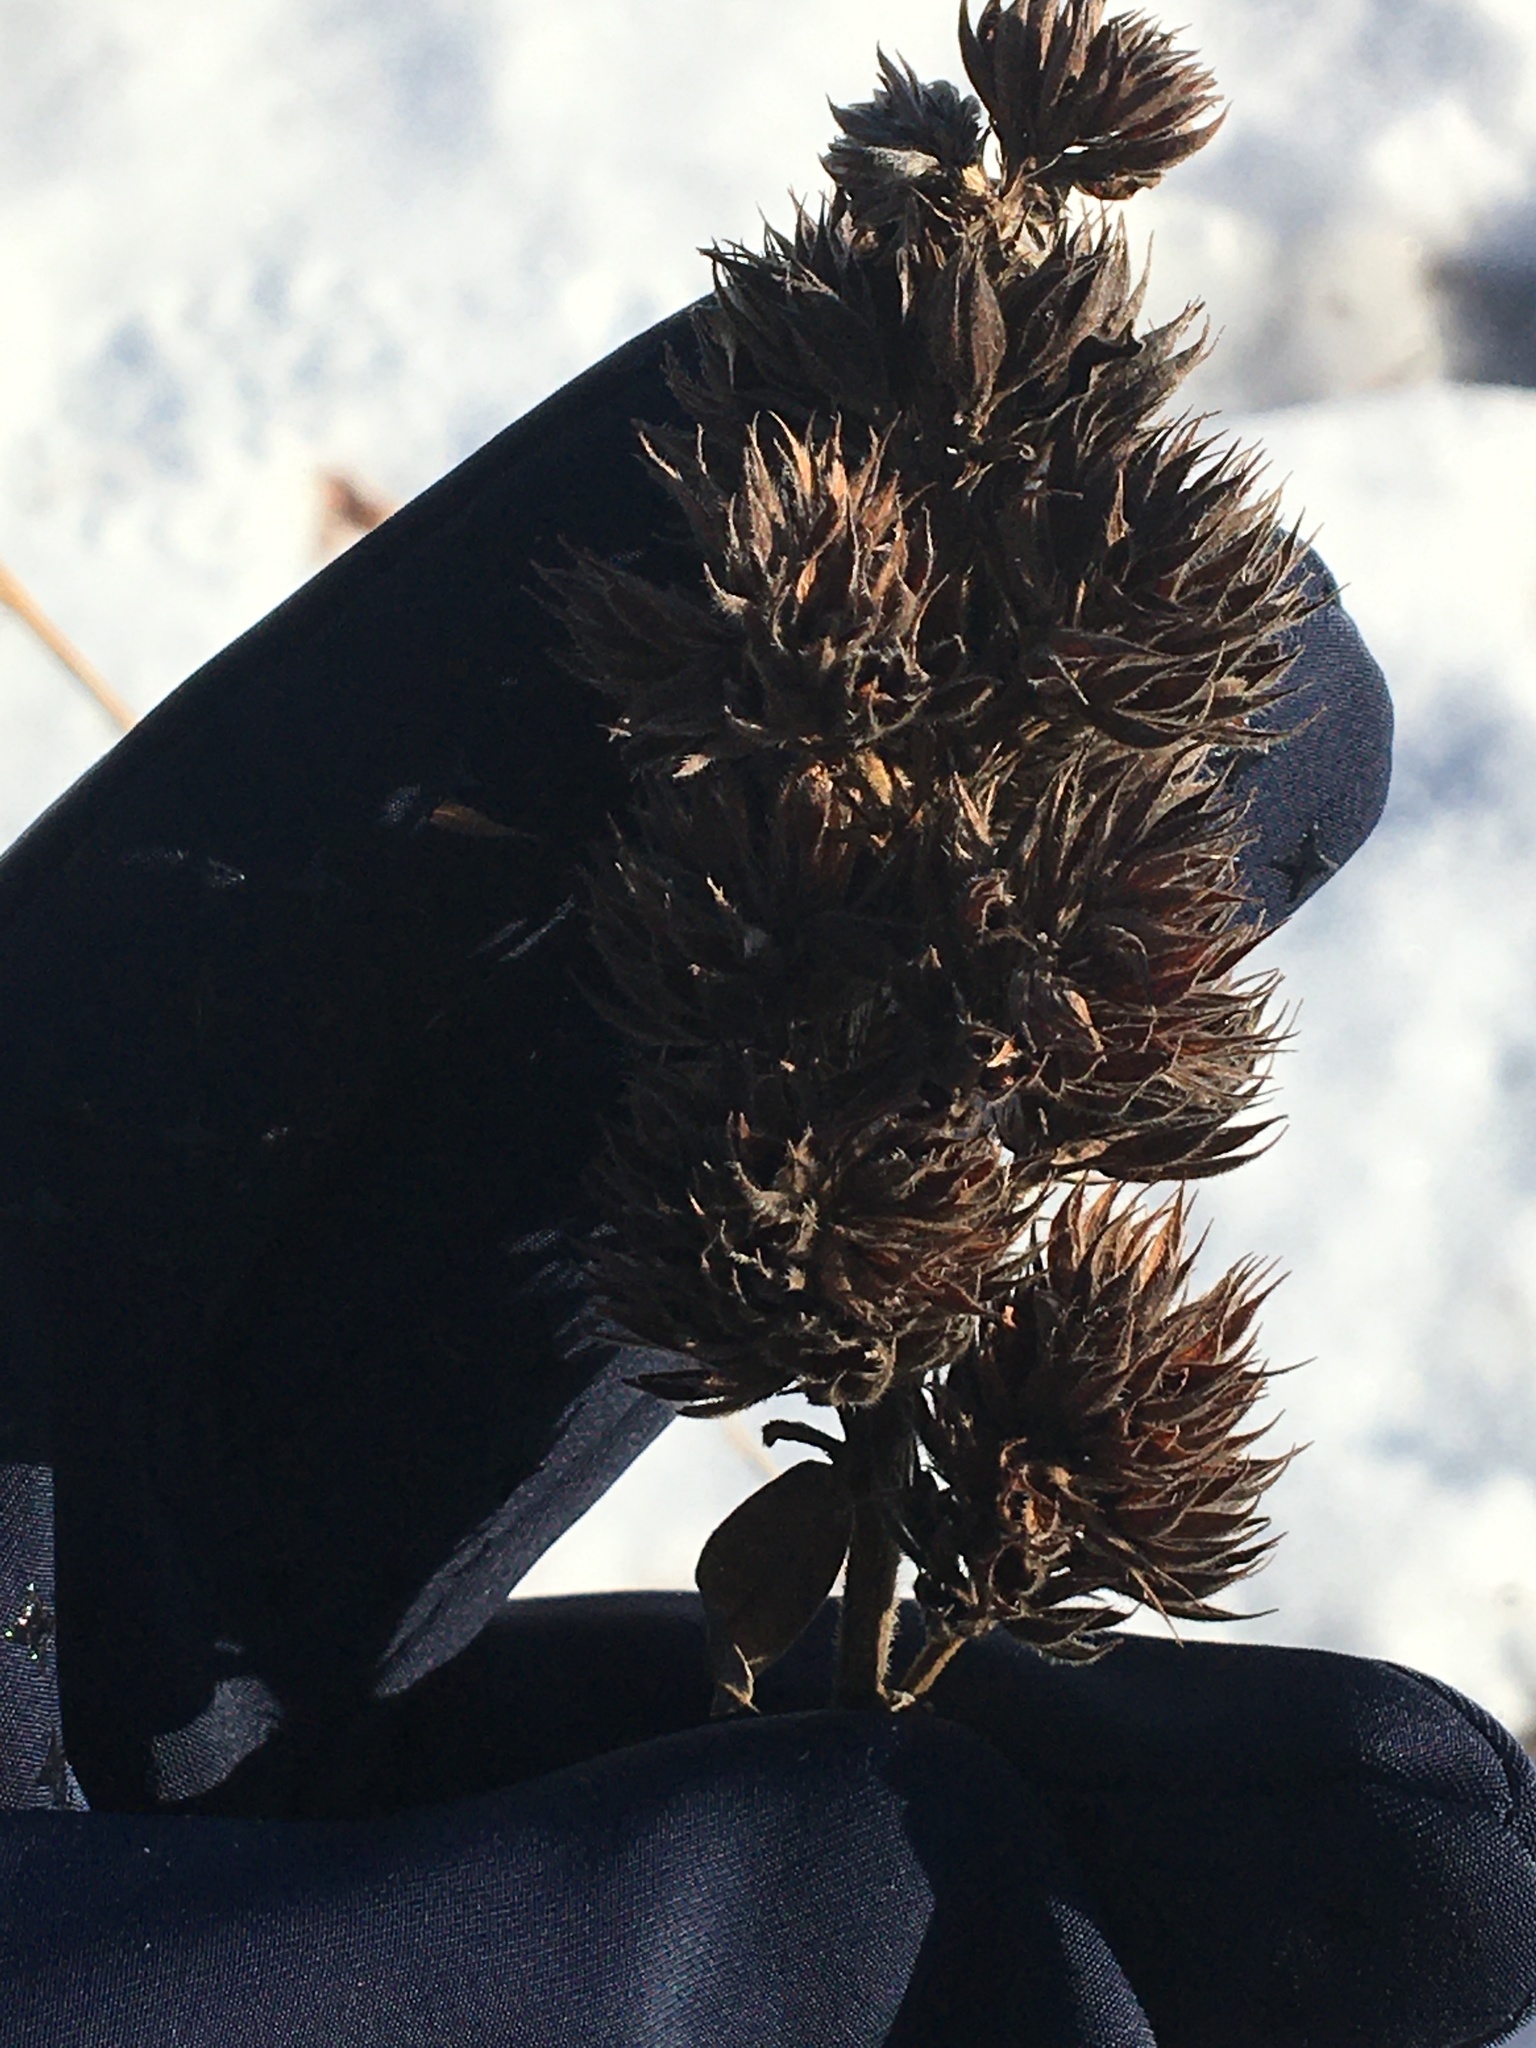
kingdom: Plantae
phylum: Tracheophyta
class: Magnoliopsida
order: Fabales
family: Fabaceae
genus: Lespedeza
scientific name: Lespedeza capitata
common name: Dusty clover
